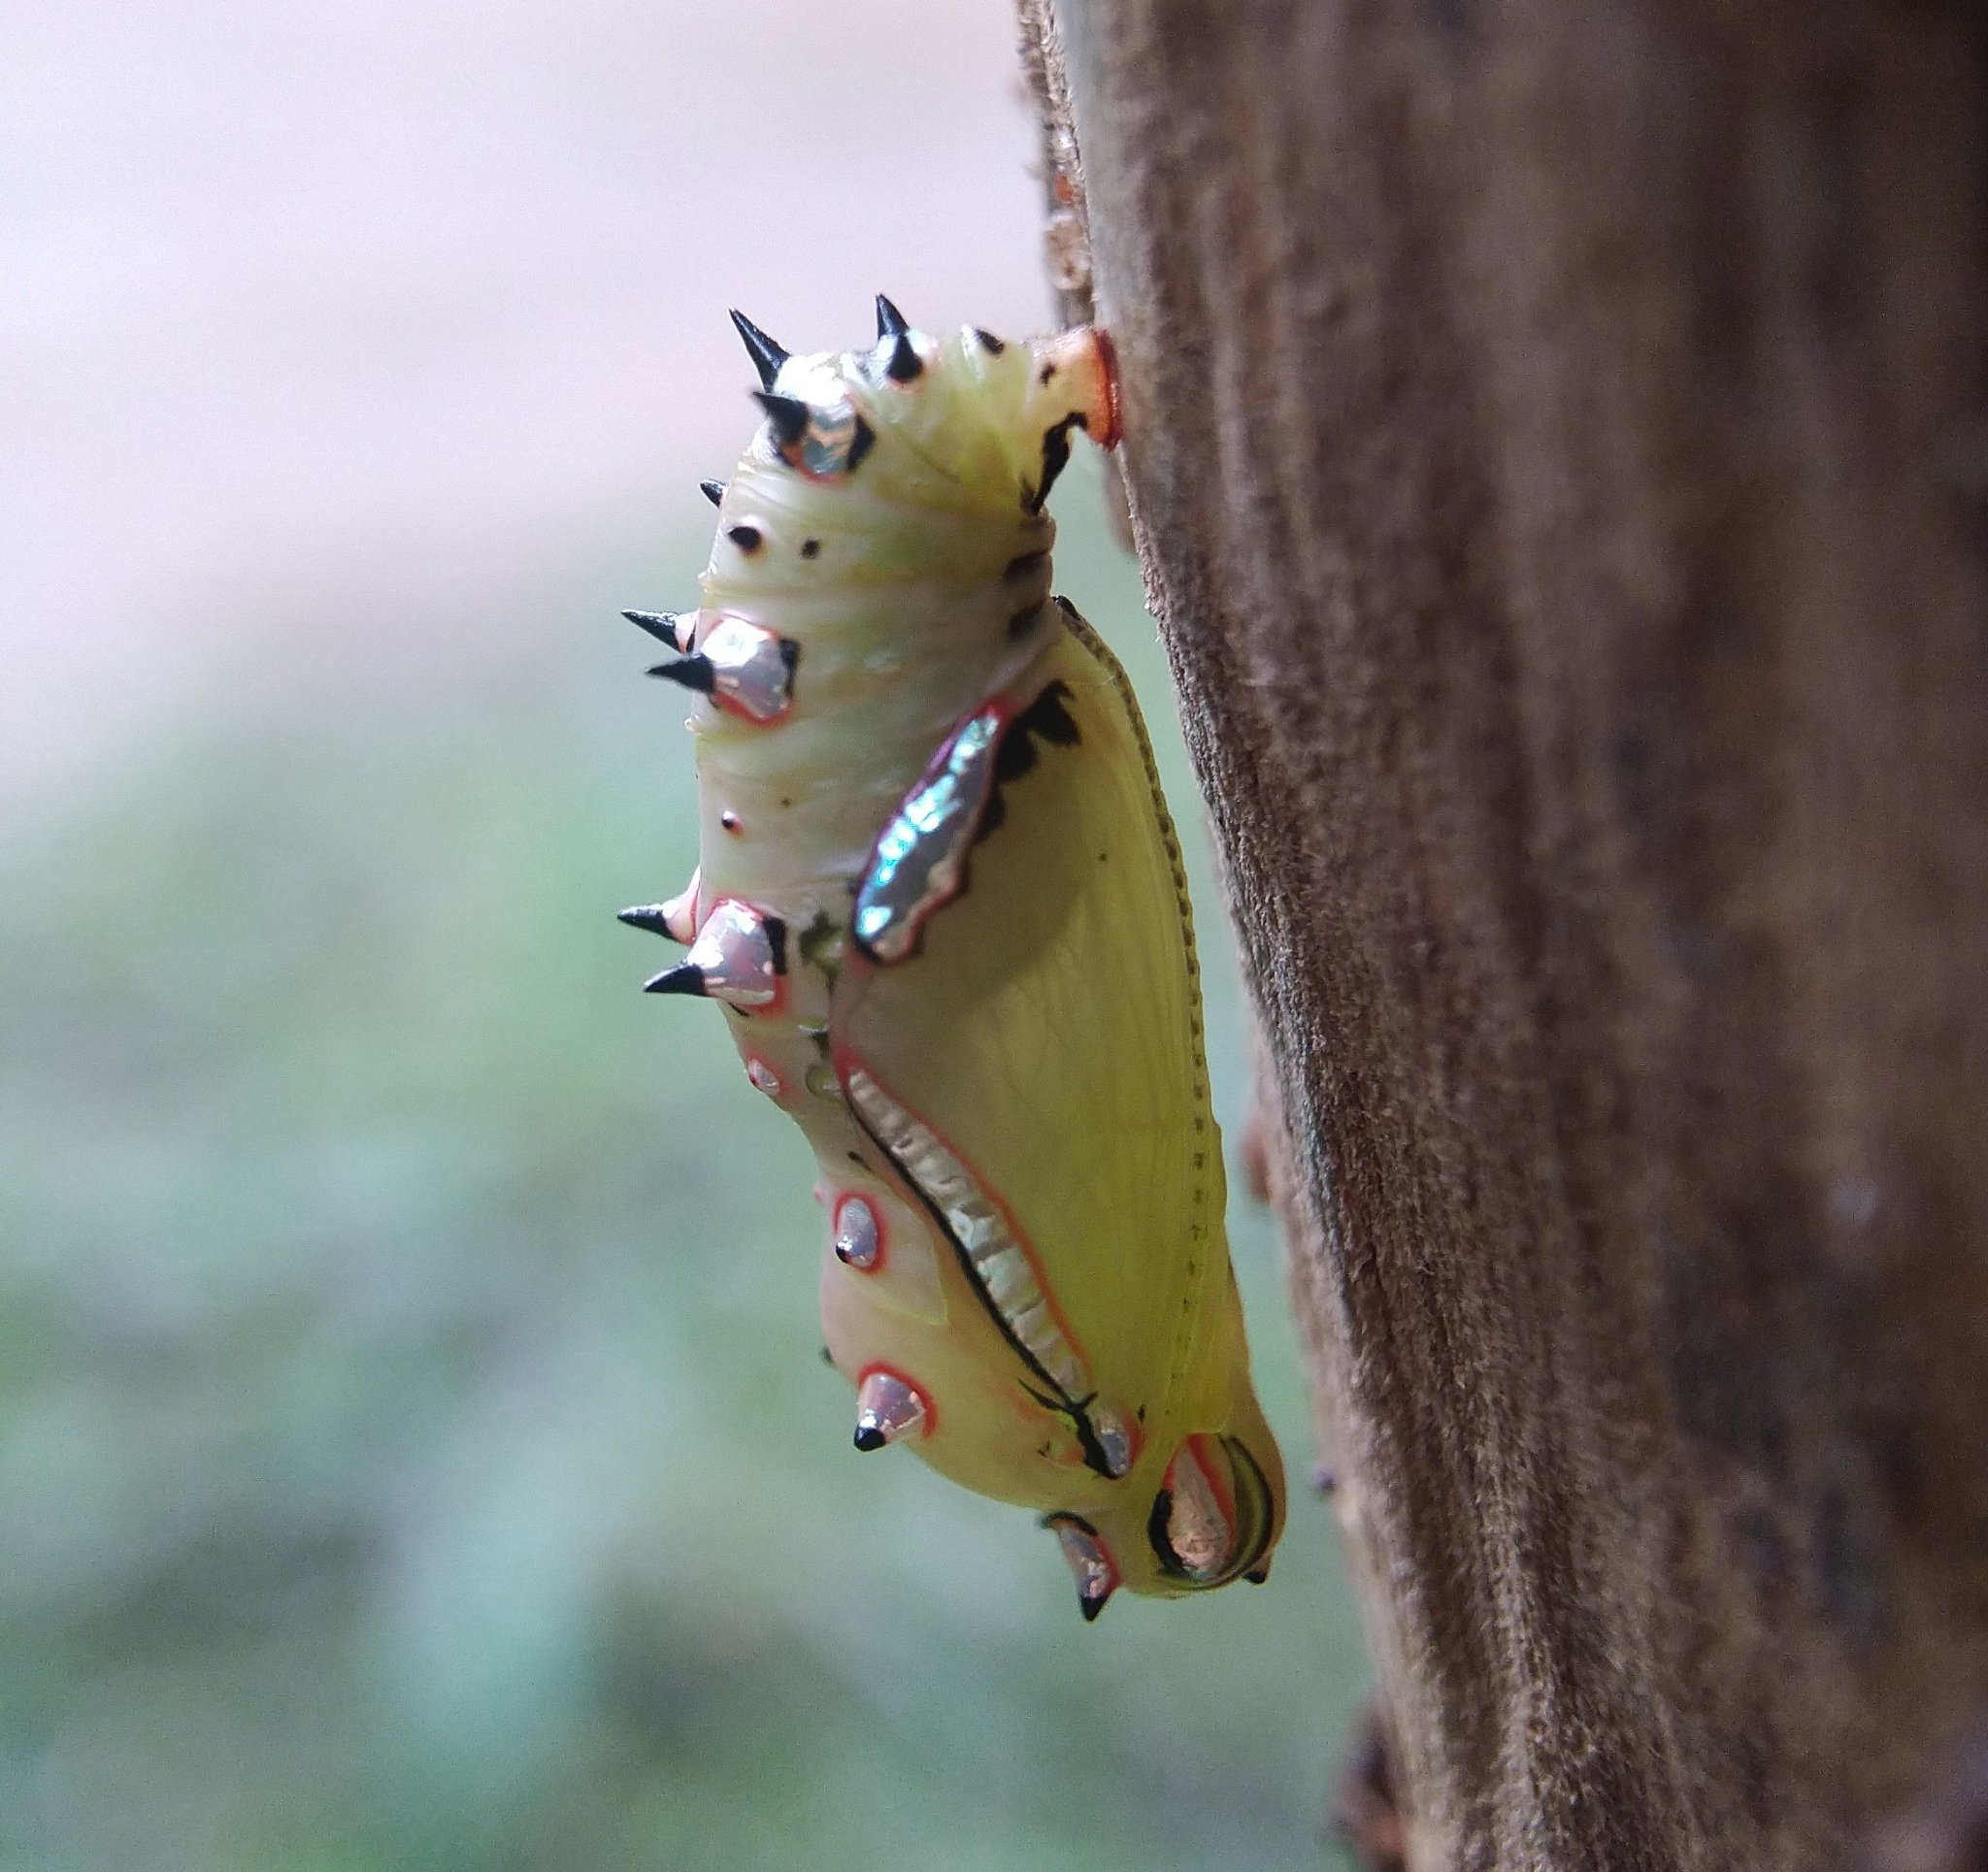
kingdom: Animalia
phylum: Arthropoda
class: Insecta
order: Lepidoptera
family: Nymphalidae
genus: Phalanta
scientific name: Phalanta phalantha
